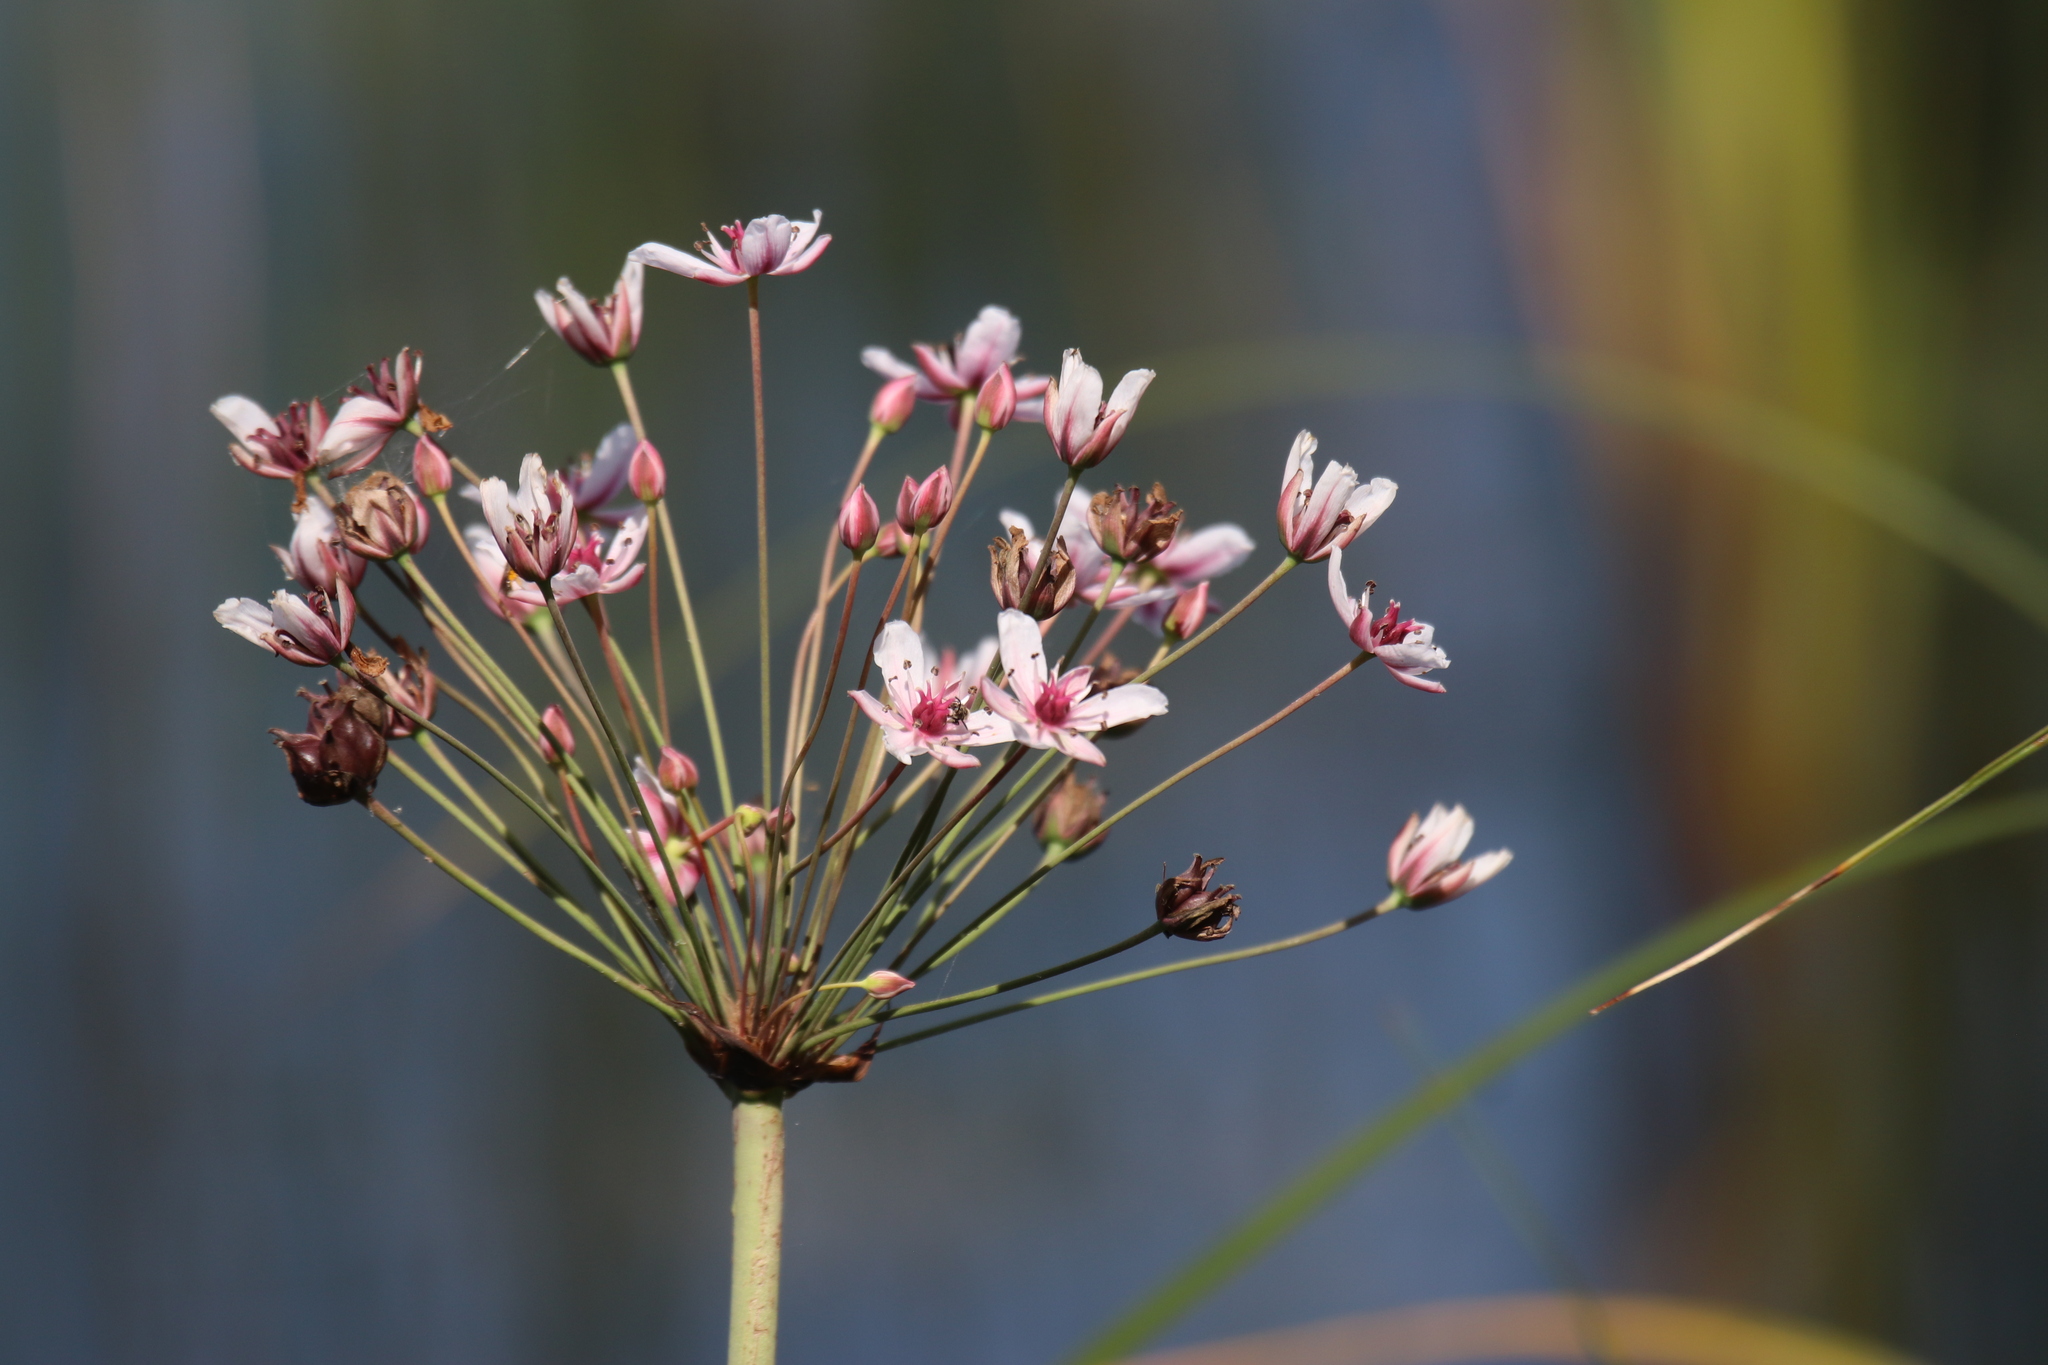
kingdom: Plantae
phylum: Tracheophyta
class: Liliopsida
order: Alismatales
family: Butomaceae
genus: Butomus
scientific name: Butomus umbellatus
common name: Flowering-rush
